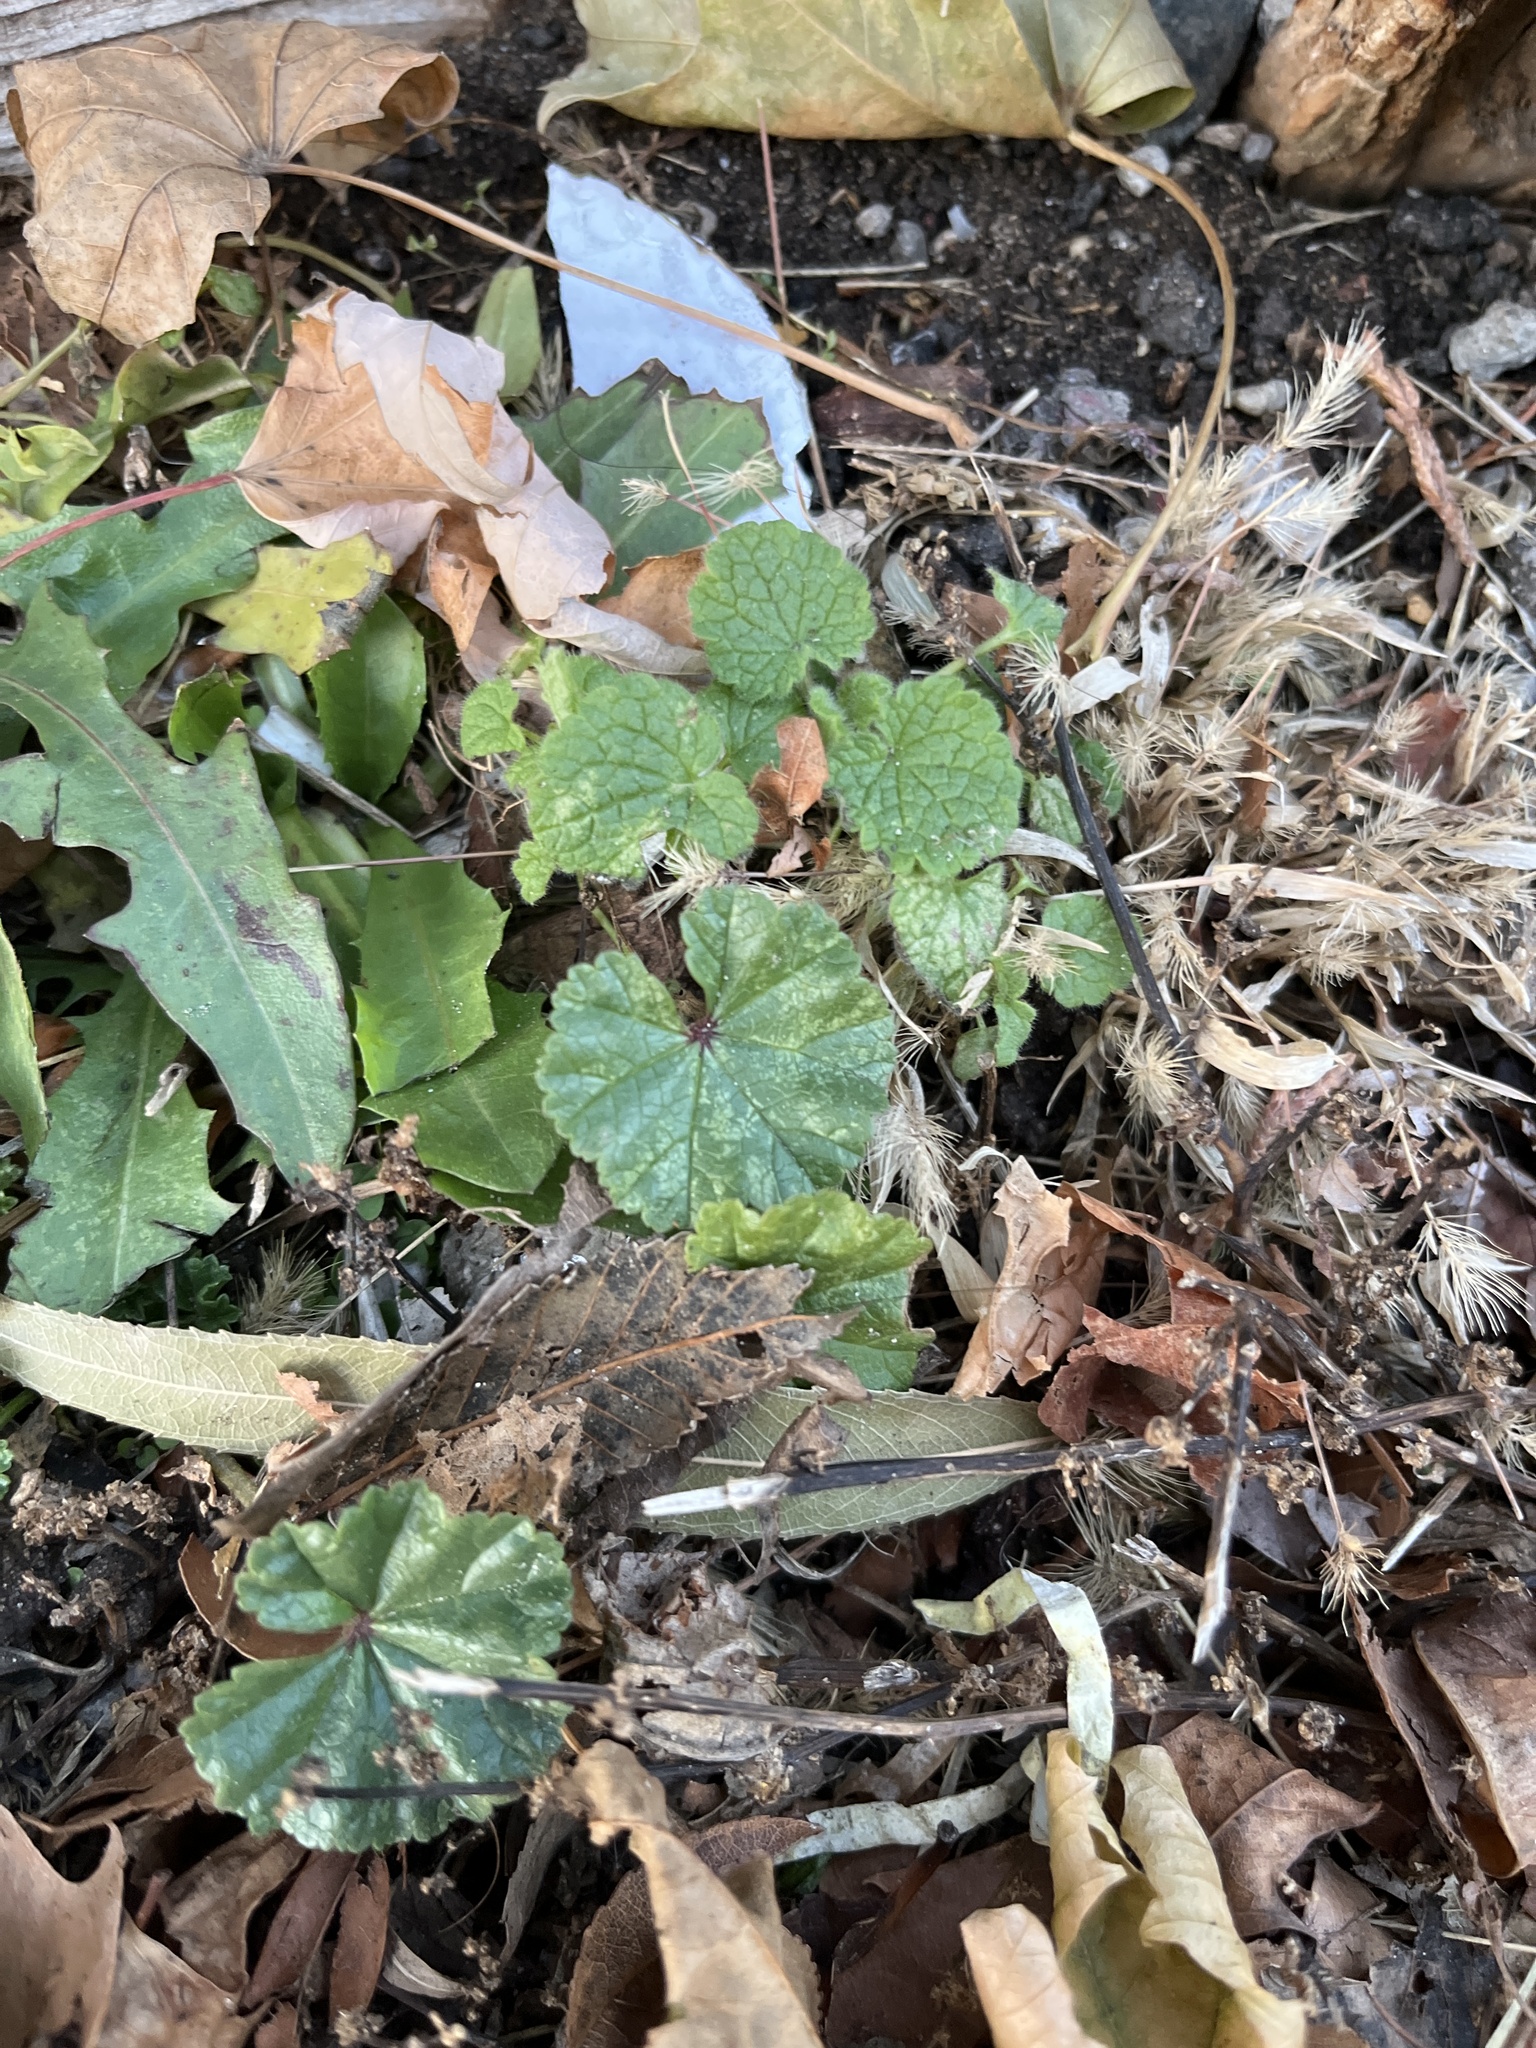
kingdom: Plantae
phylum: Tracheophyta
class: Magnoliopsida
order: Malvales
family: Malvaceae
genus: Malva
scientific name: Malva
